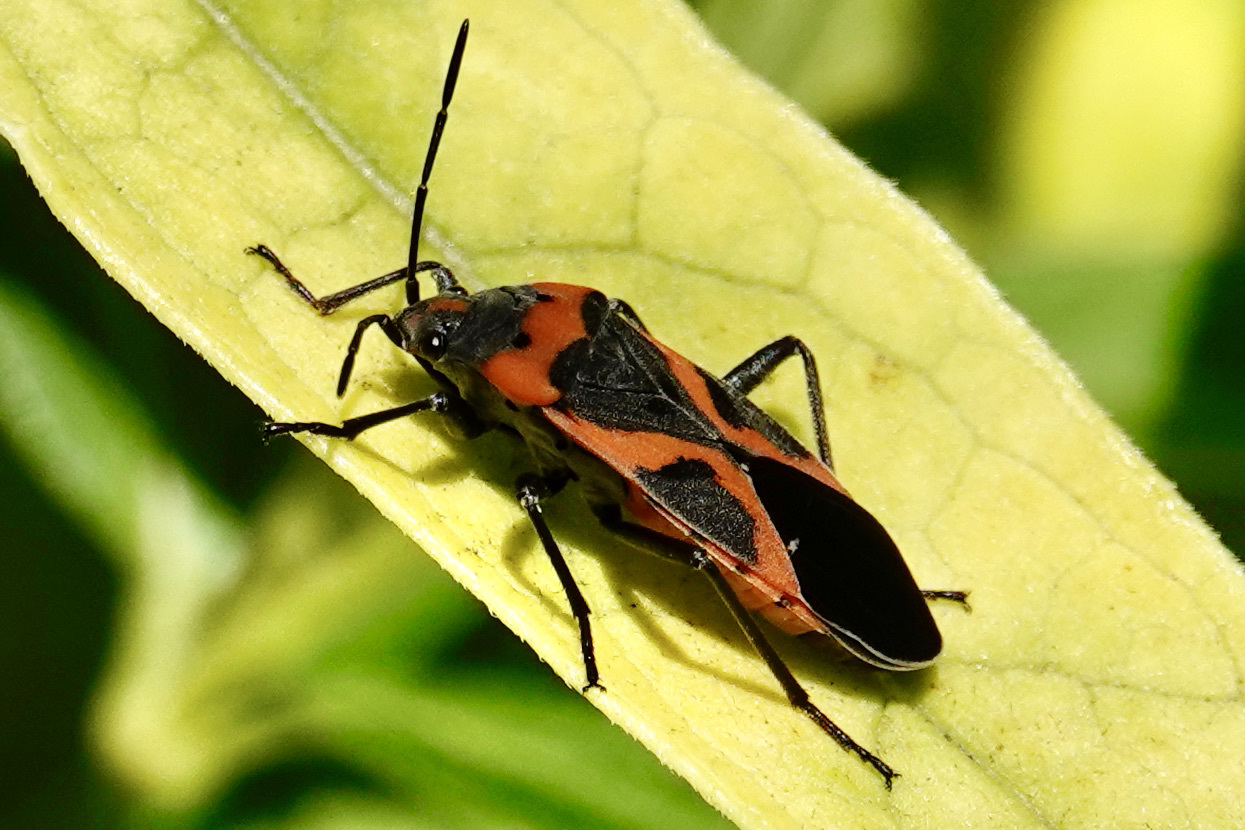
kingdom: Animalia
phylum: Arthropoda
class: Insecta
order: Hemiptera
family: Lygaeidae
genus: Lygaeus
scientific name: Lygaeus kalmii
